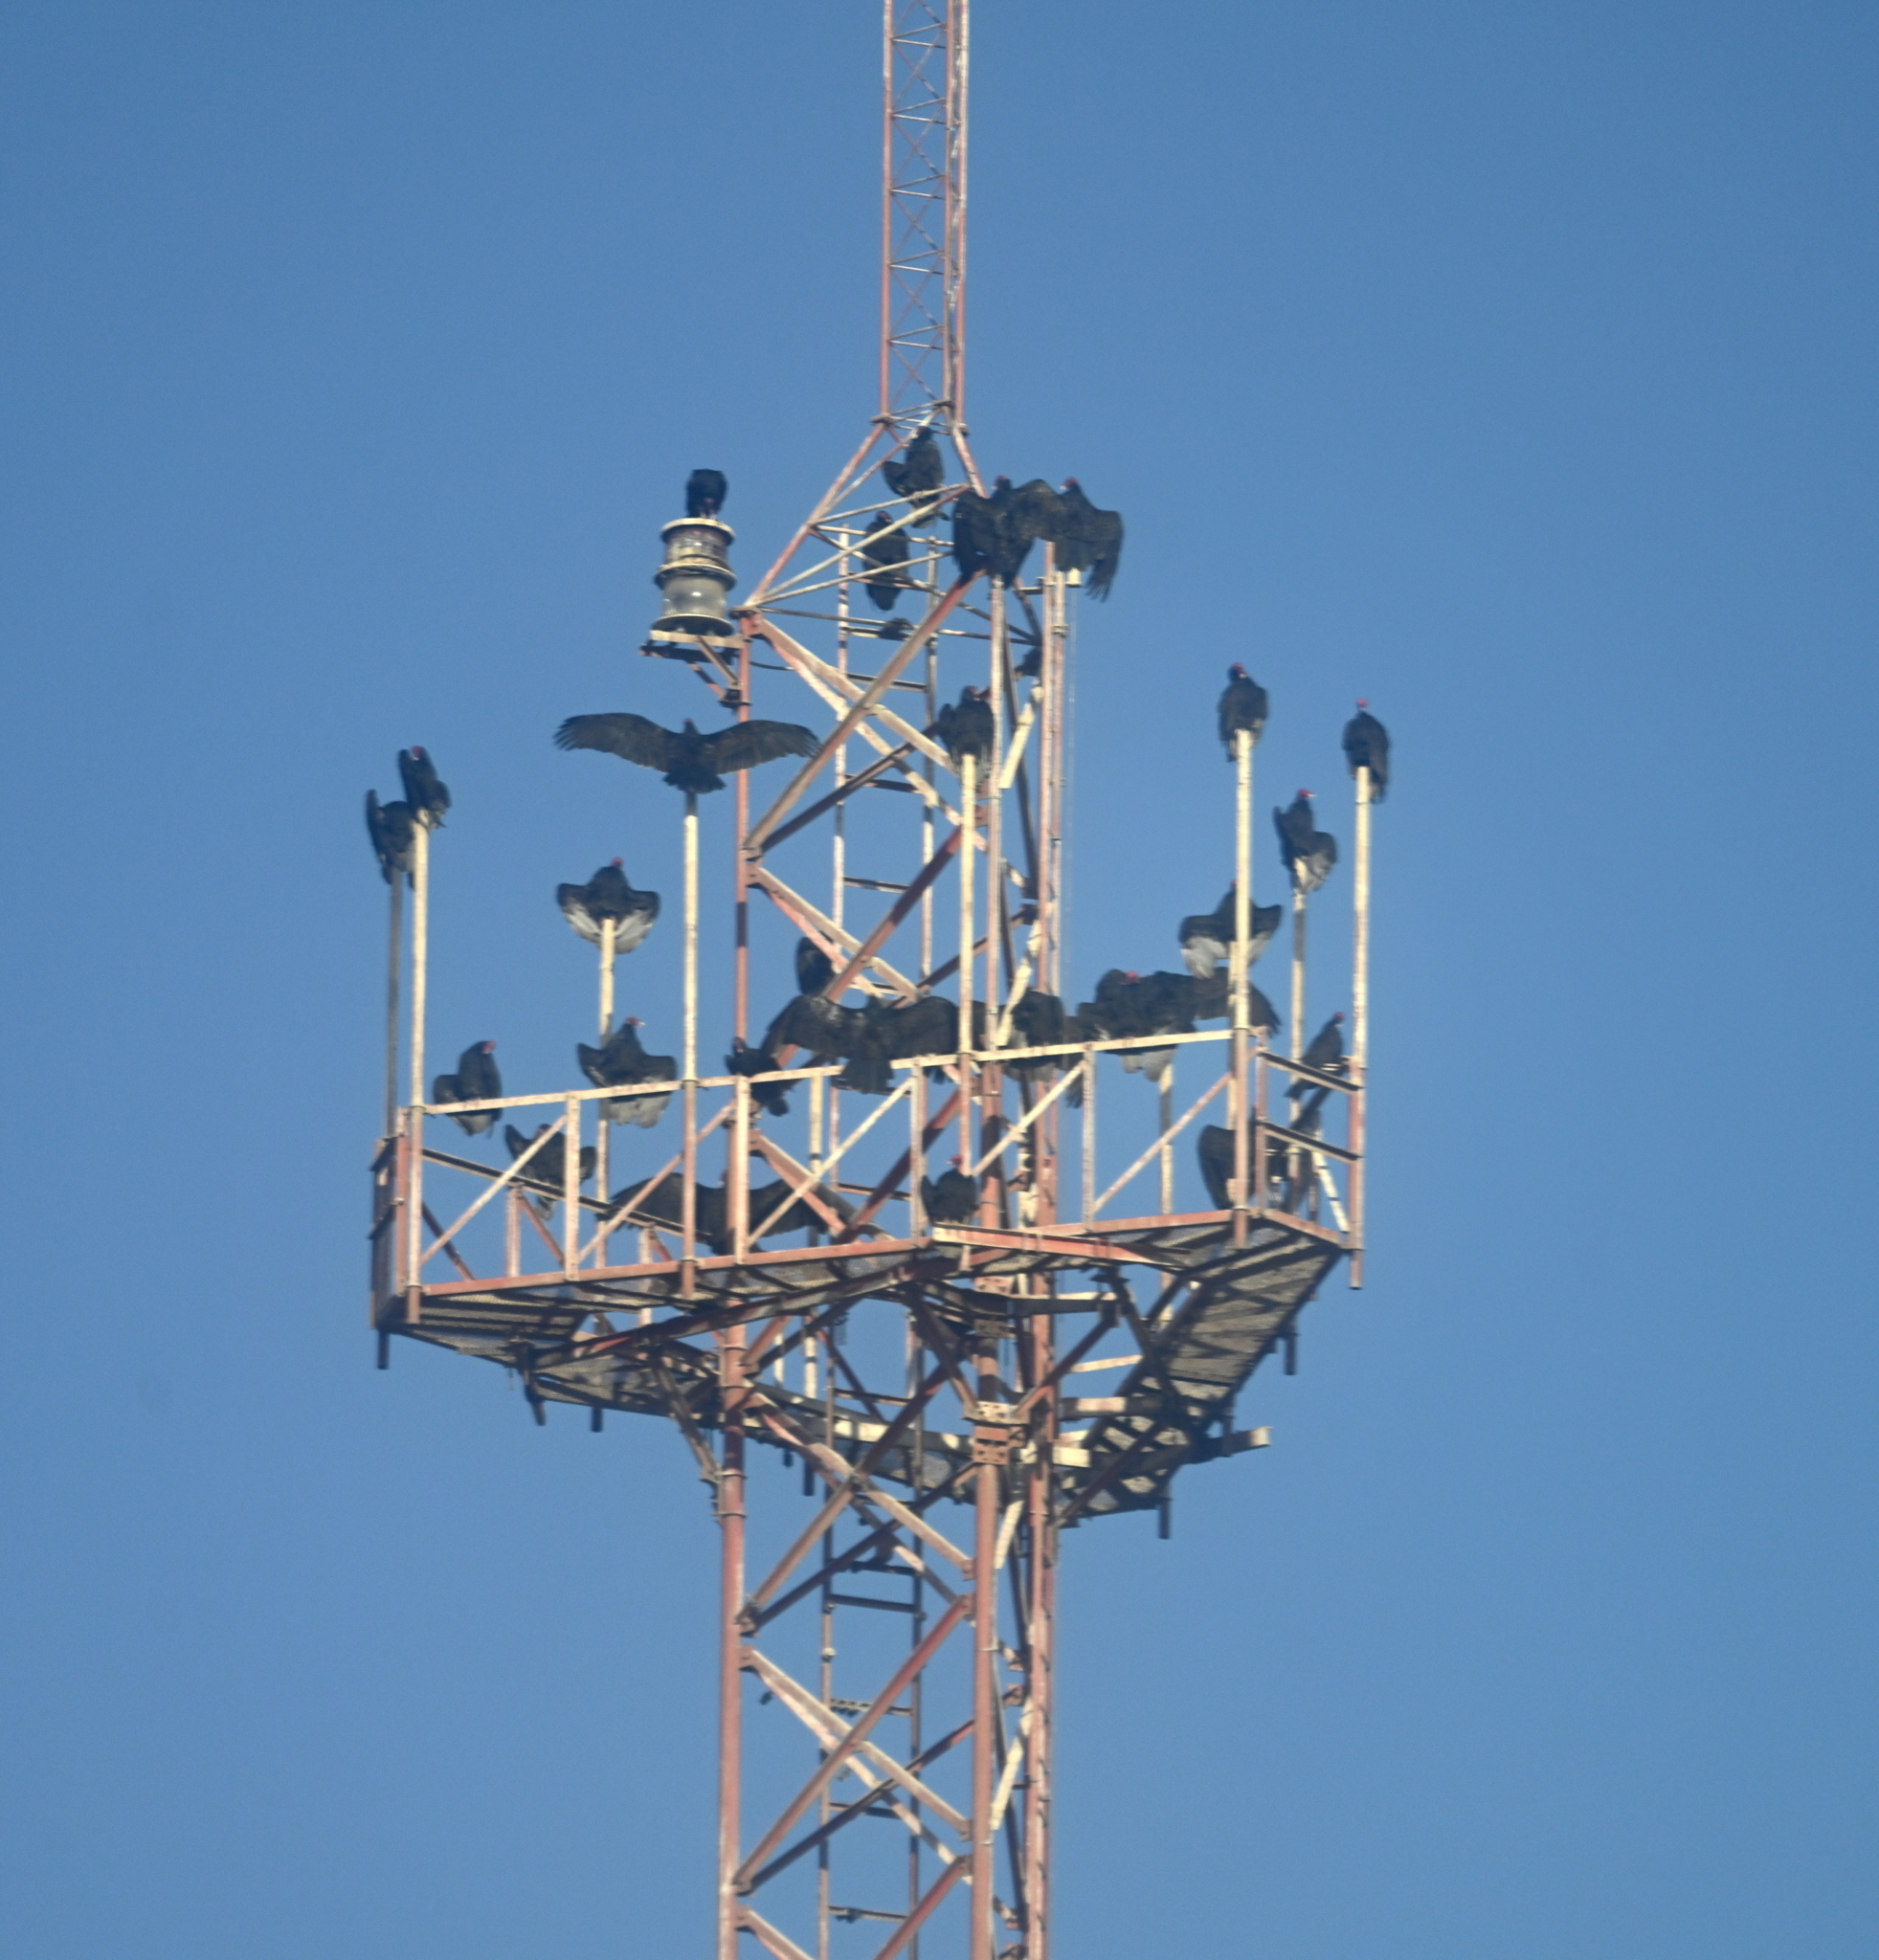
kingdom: Animalia
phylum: Chordata
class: Aves
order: Accipitriformes
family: Cathartidae
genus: Cathartes
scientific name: Cathartes aura
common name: Turkey vulture
